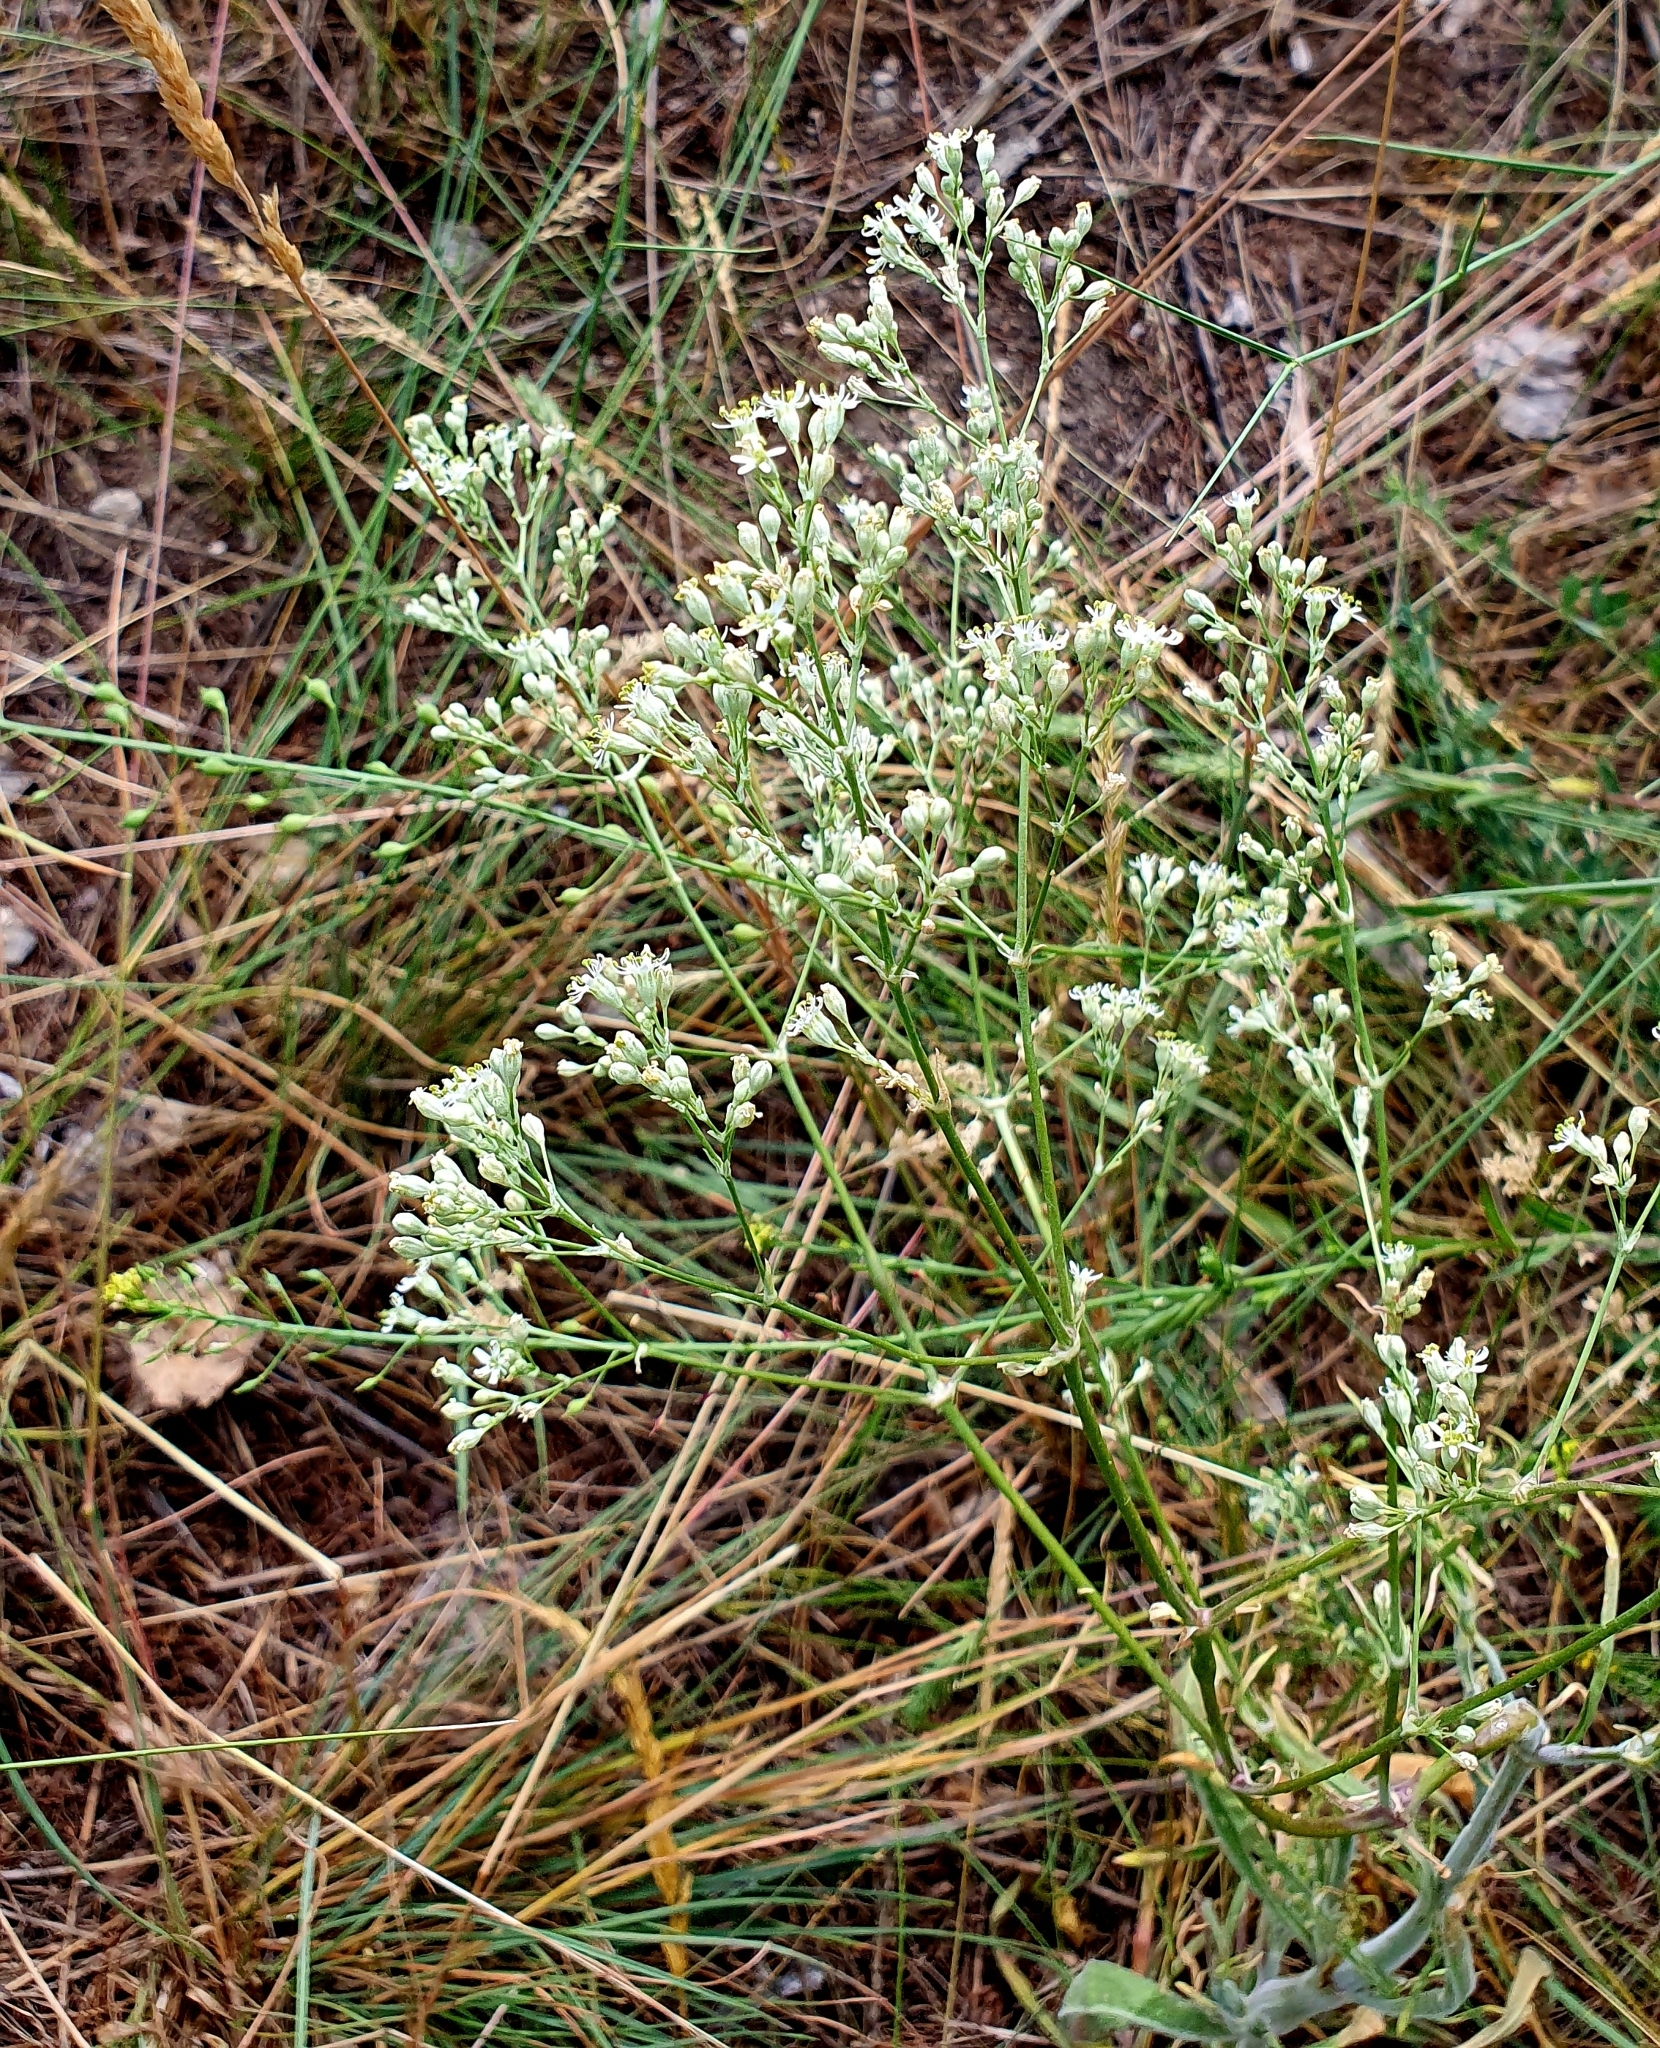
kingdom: Plantae
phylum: Tracheophyta
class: Magnoliopsida
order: Caryophyllales
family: Caryophyllaceae
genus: Silene
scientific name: Silene wolgensis
